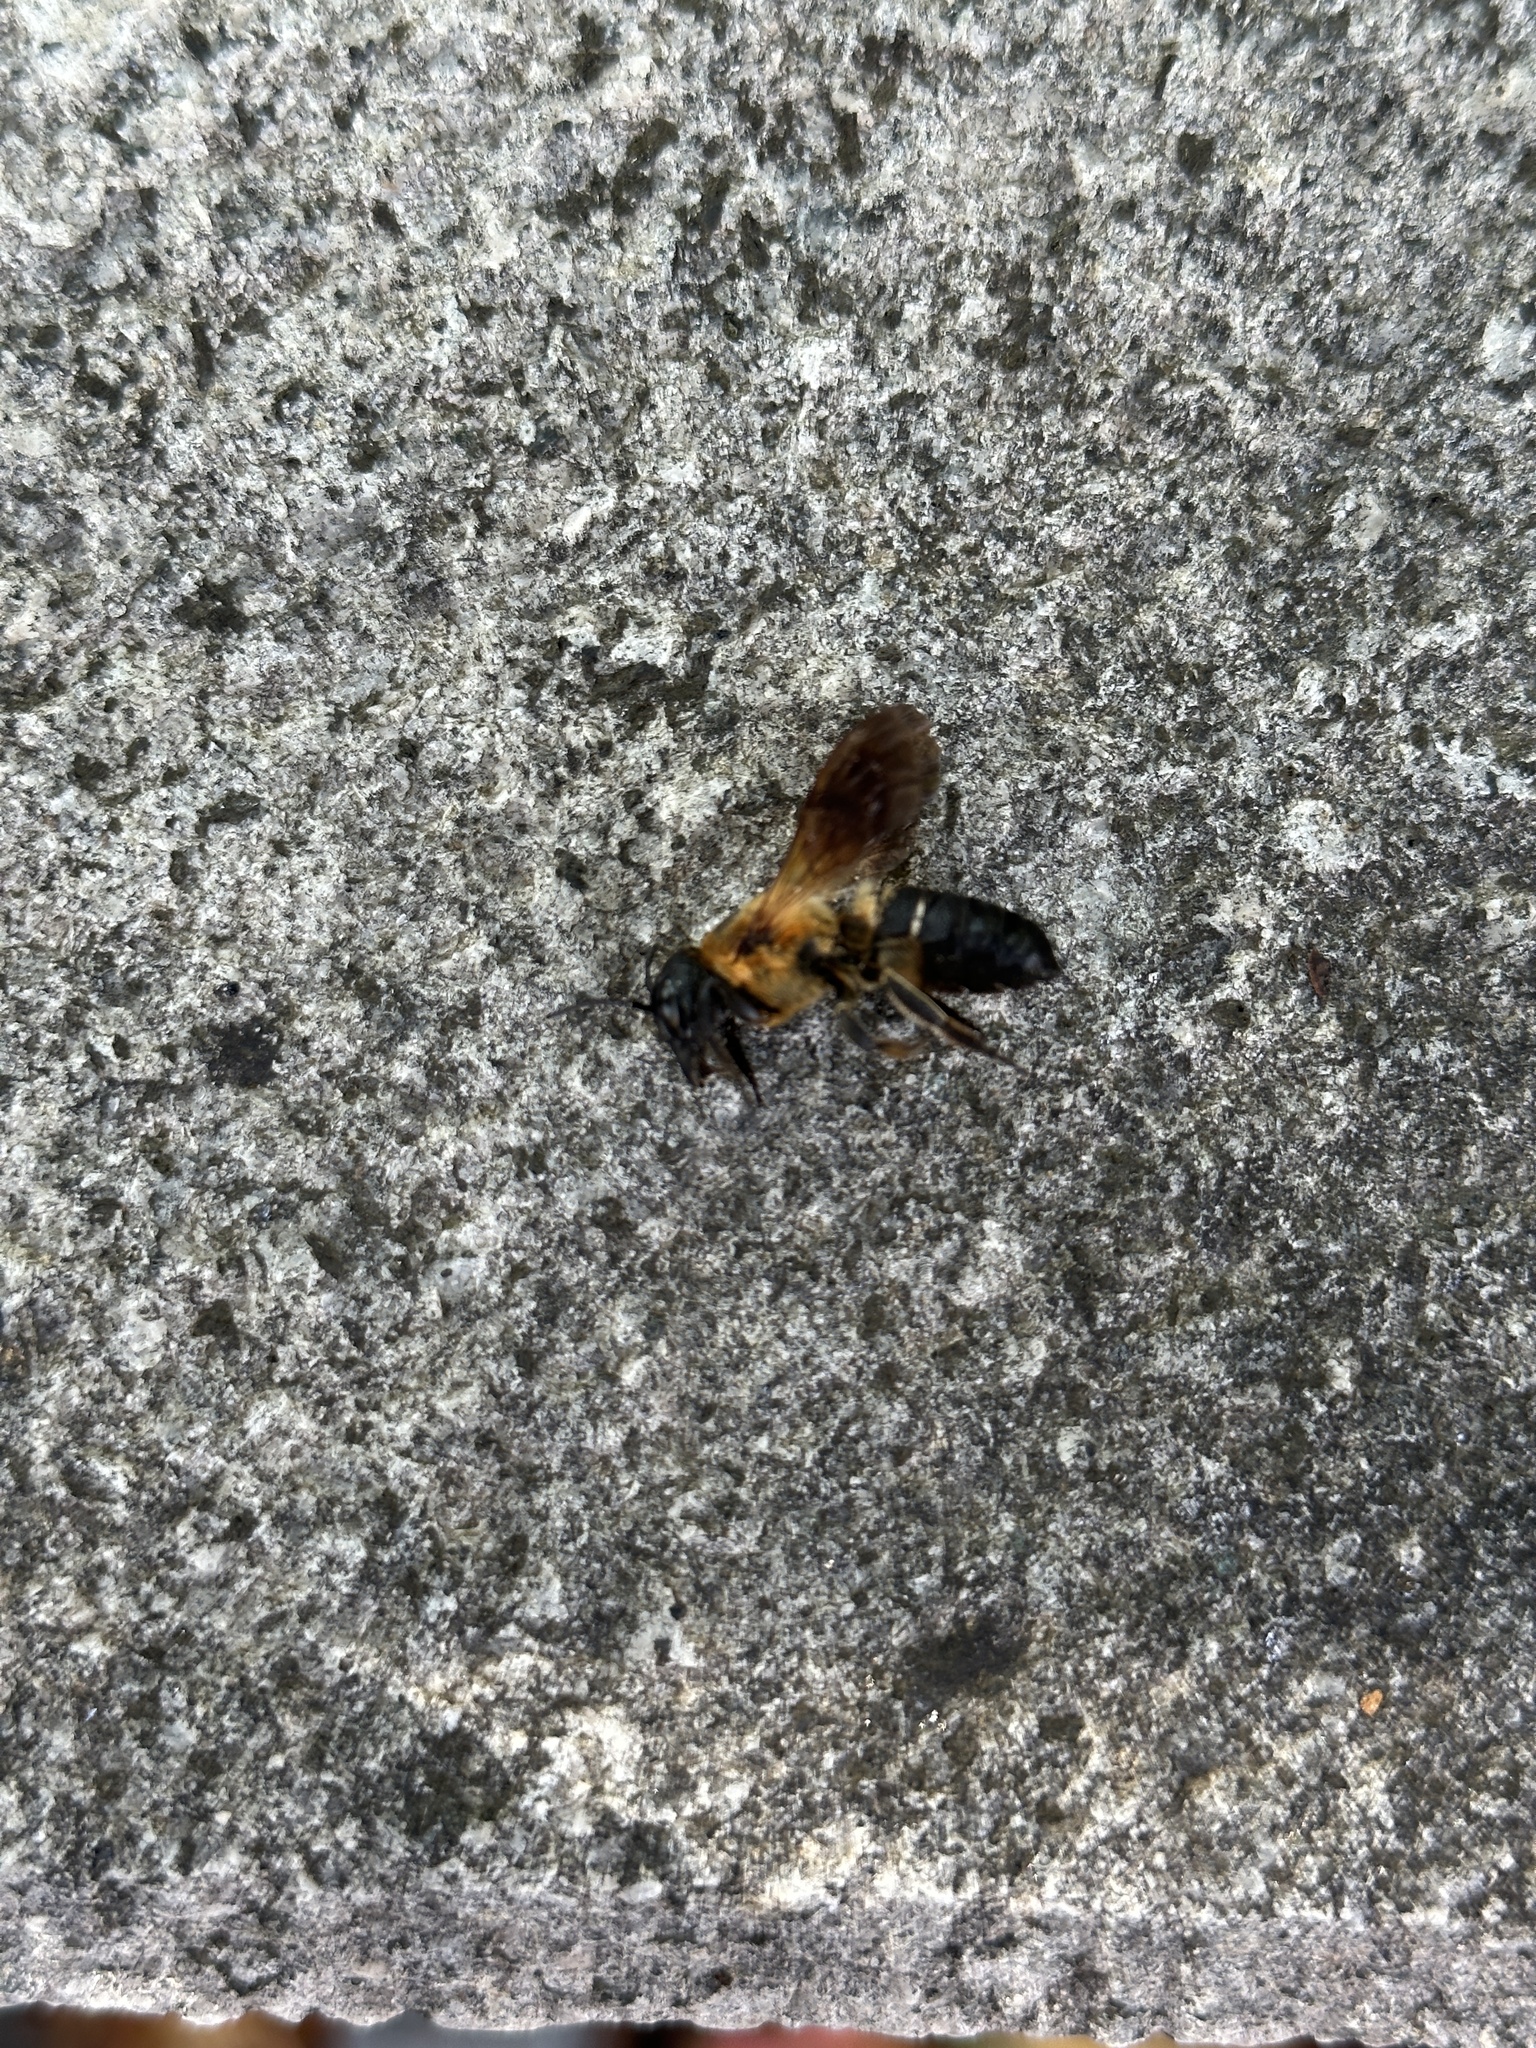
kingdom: Animalia
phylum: Arthropoda
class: Insecta
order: Hymenoptera
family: Megachilidae
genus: Megachile
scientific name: Megachile sculpturalis
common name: Sculptured resin bee
